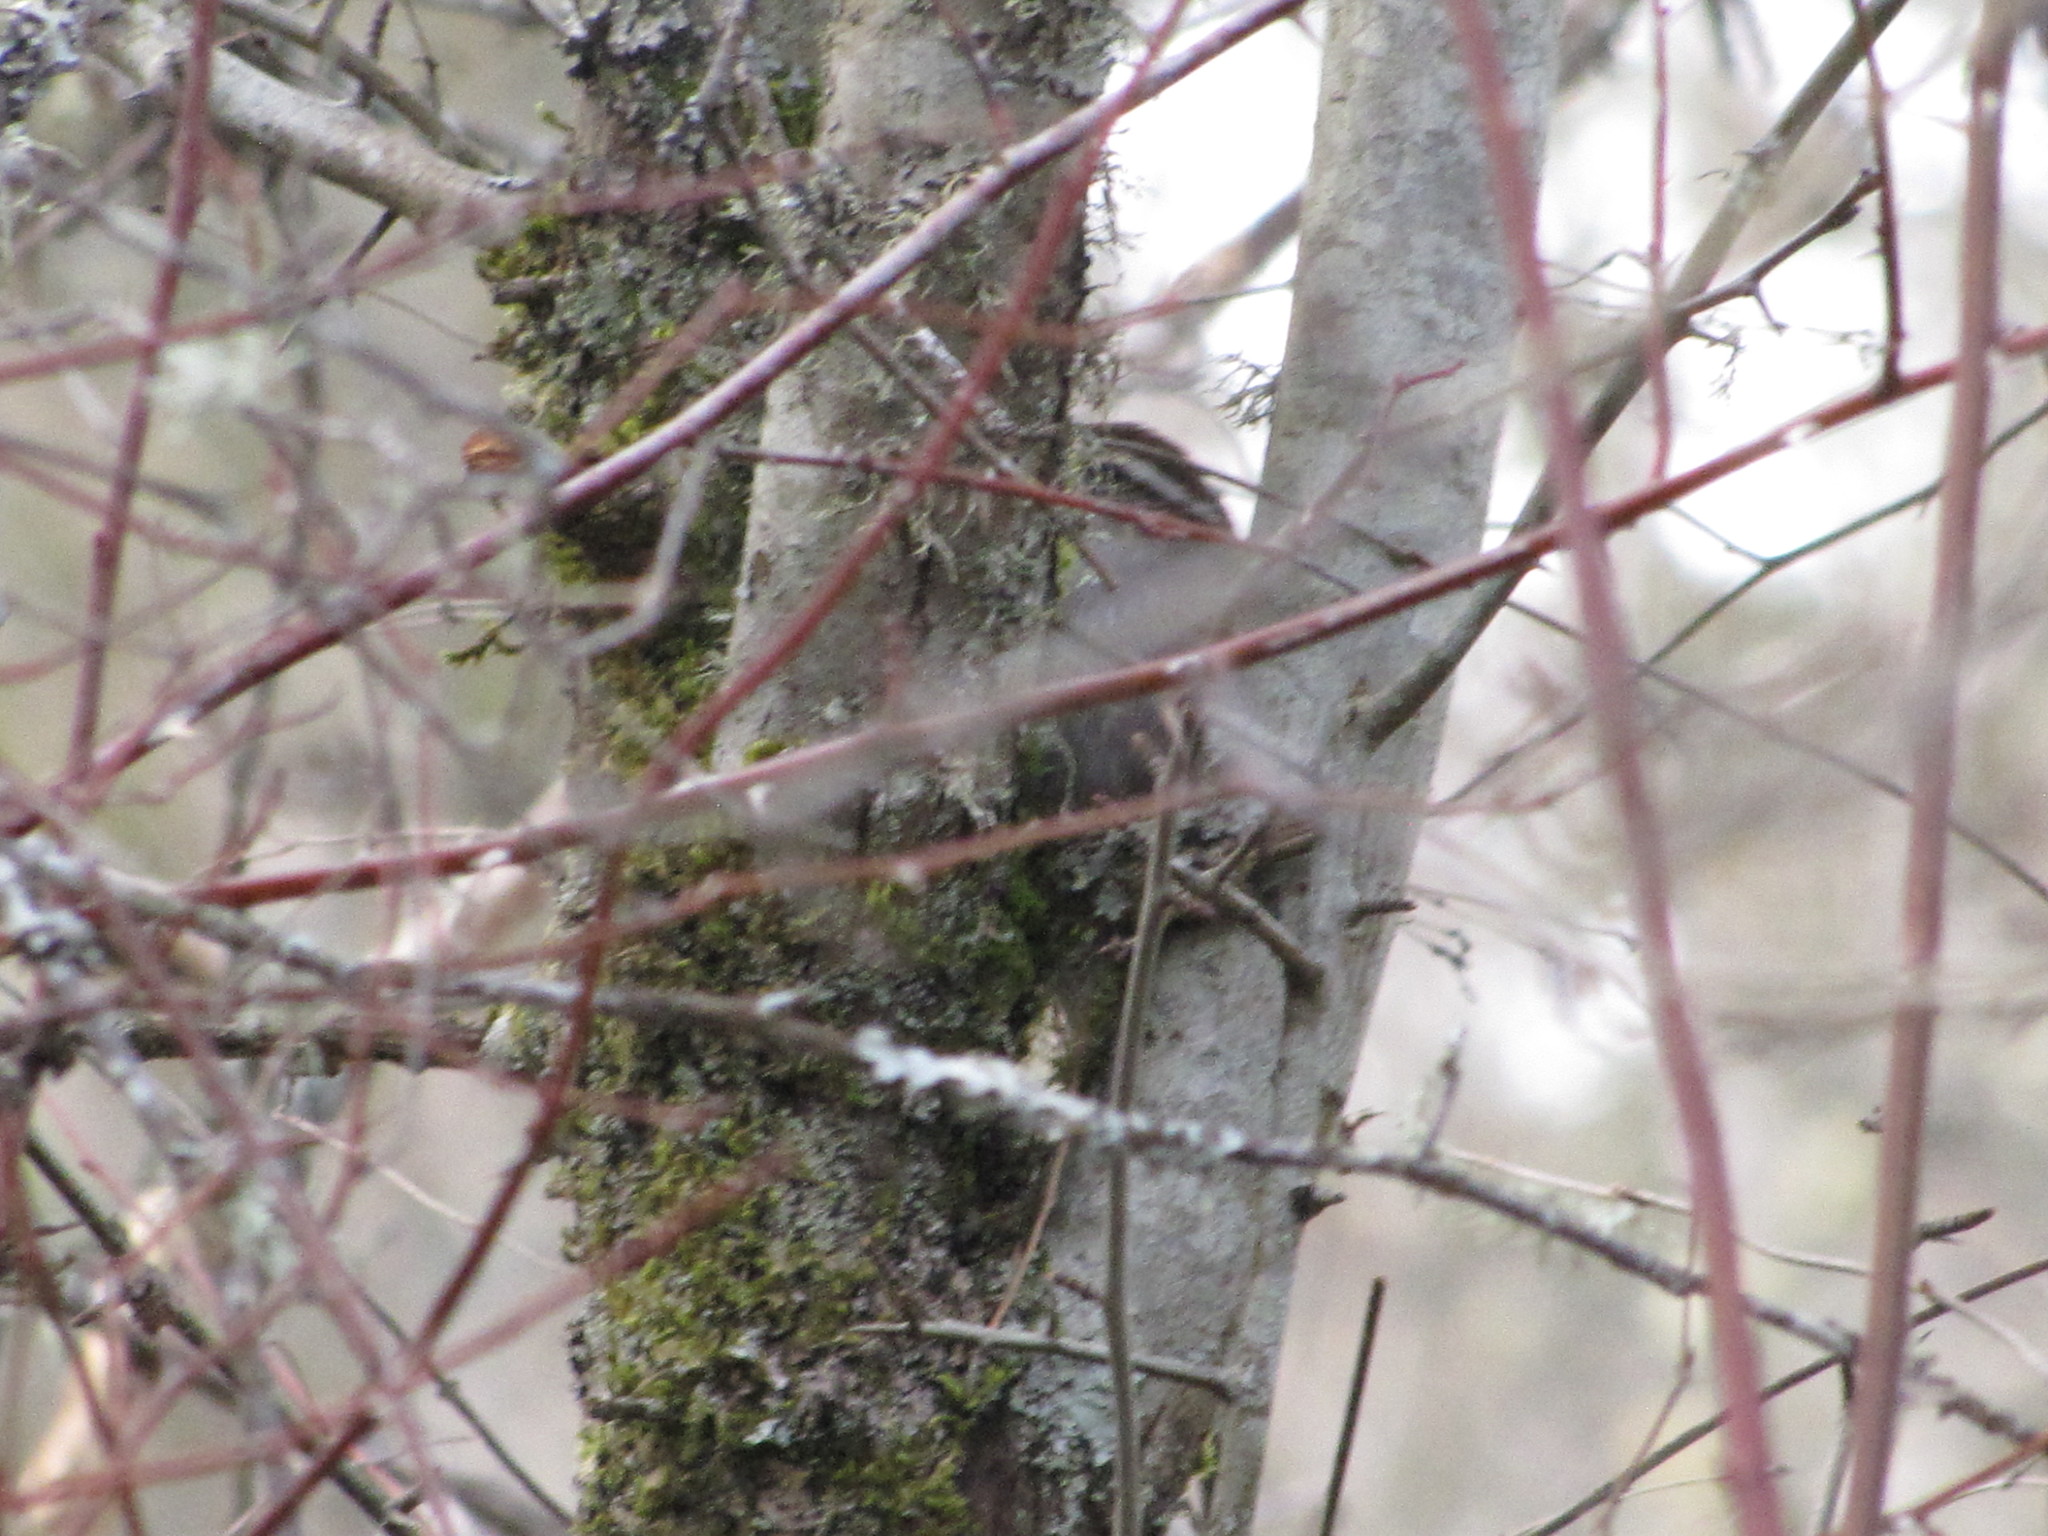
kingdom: Animalia
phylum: Chordata
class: Aves
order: Passeriformes
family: Troglodytidae
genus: Thryomanes
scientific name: Thryomanes bewickii
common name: Bewick's wren
